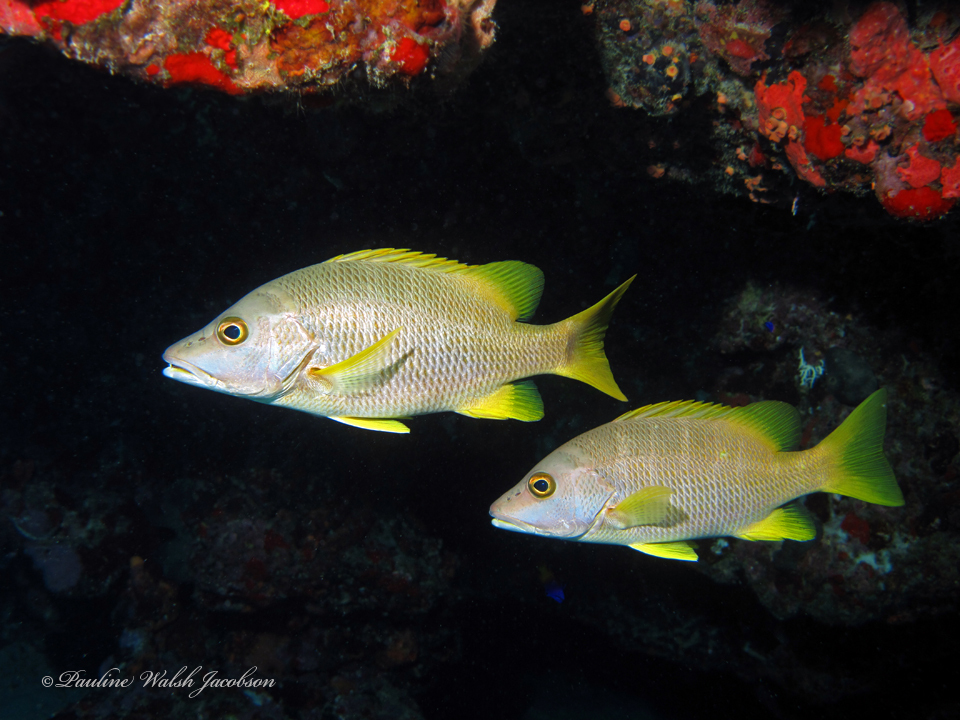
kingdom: Animalia
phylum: Chordata
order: Perciformes
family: Lutjanidae
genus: Lutjanus
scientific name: Lutjanus apodus
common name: Schoolmaster
